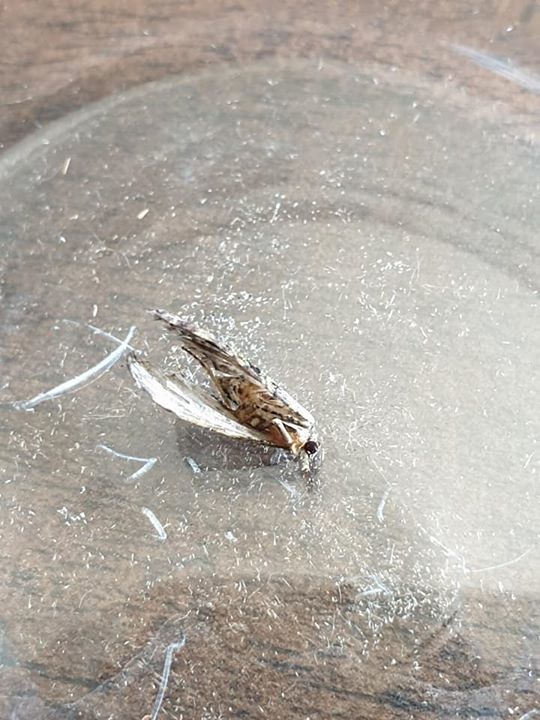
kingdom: Animalia
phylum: Arthropoda
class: Insecta
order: Lepidoptera
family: Geometridae
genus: Pasiphilodes
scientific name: Pasiphilodes testulata
